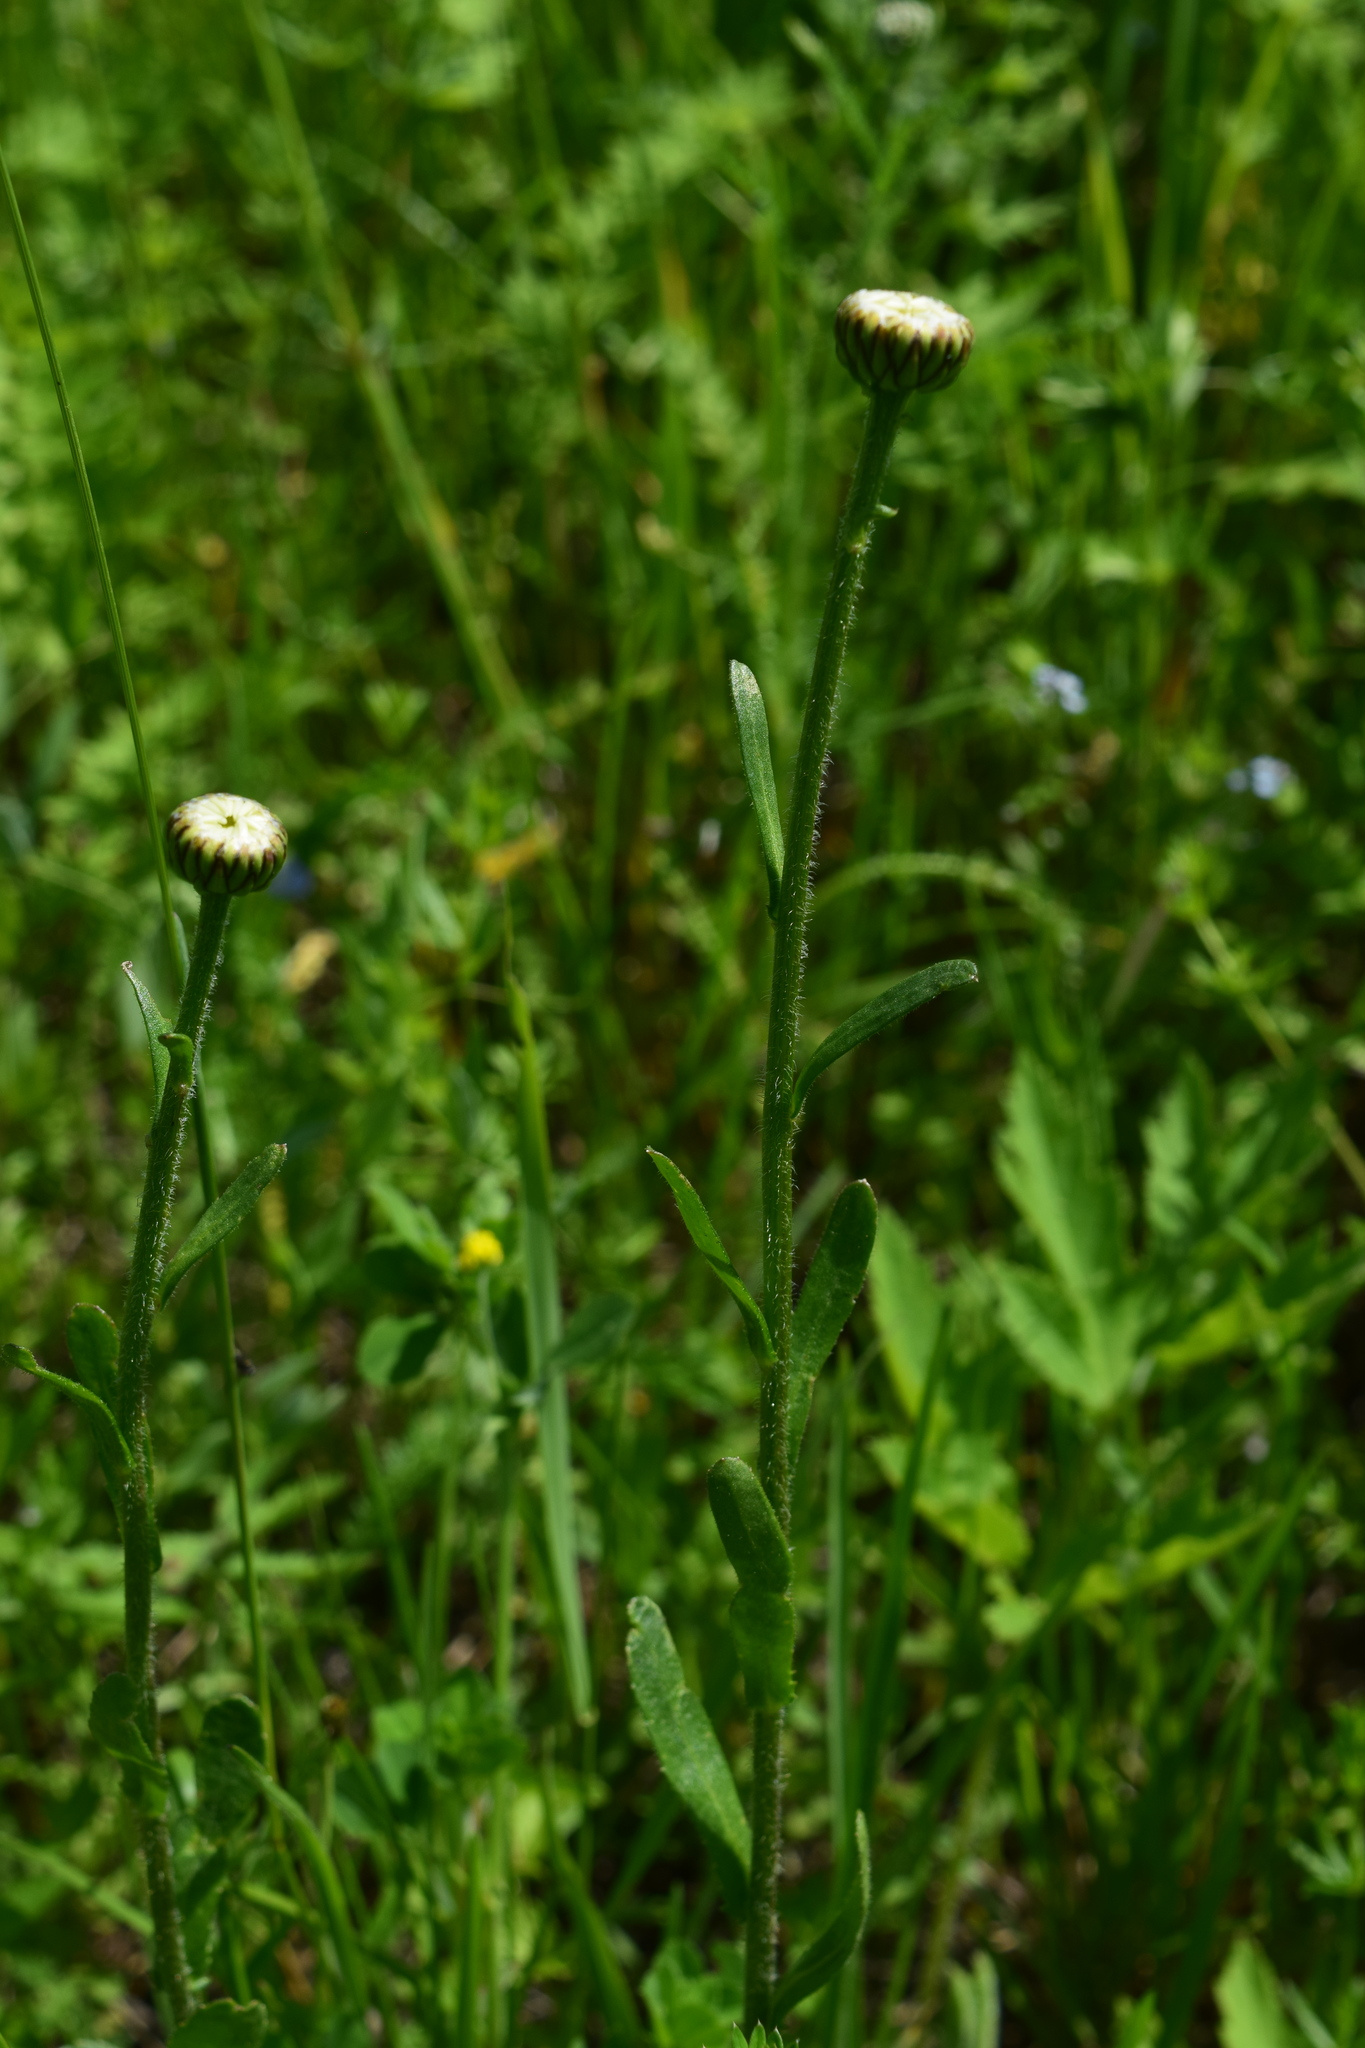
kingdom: Plantae
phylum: Tracheophyta
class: Magnoliopsida
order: Asterales
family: Asteraceae
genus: Leucanthemum
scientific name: Leucanthemum vulgare
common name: Oxeye daisy
